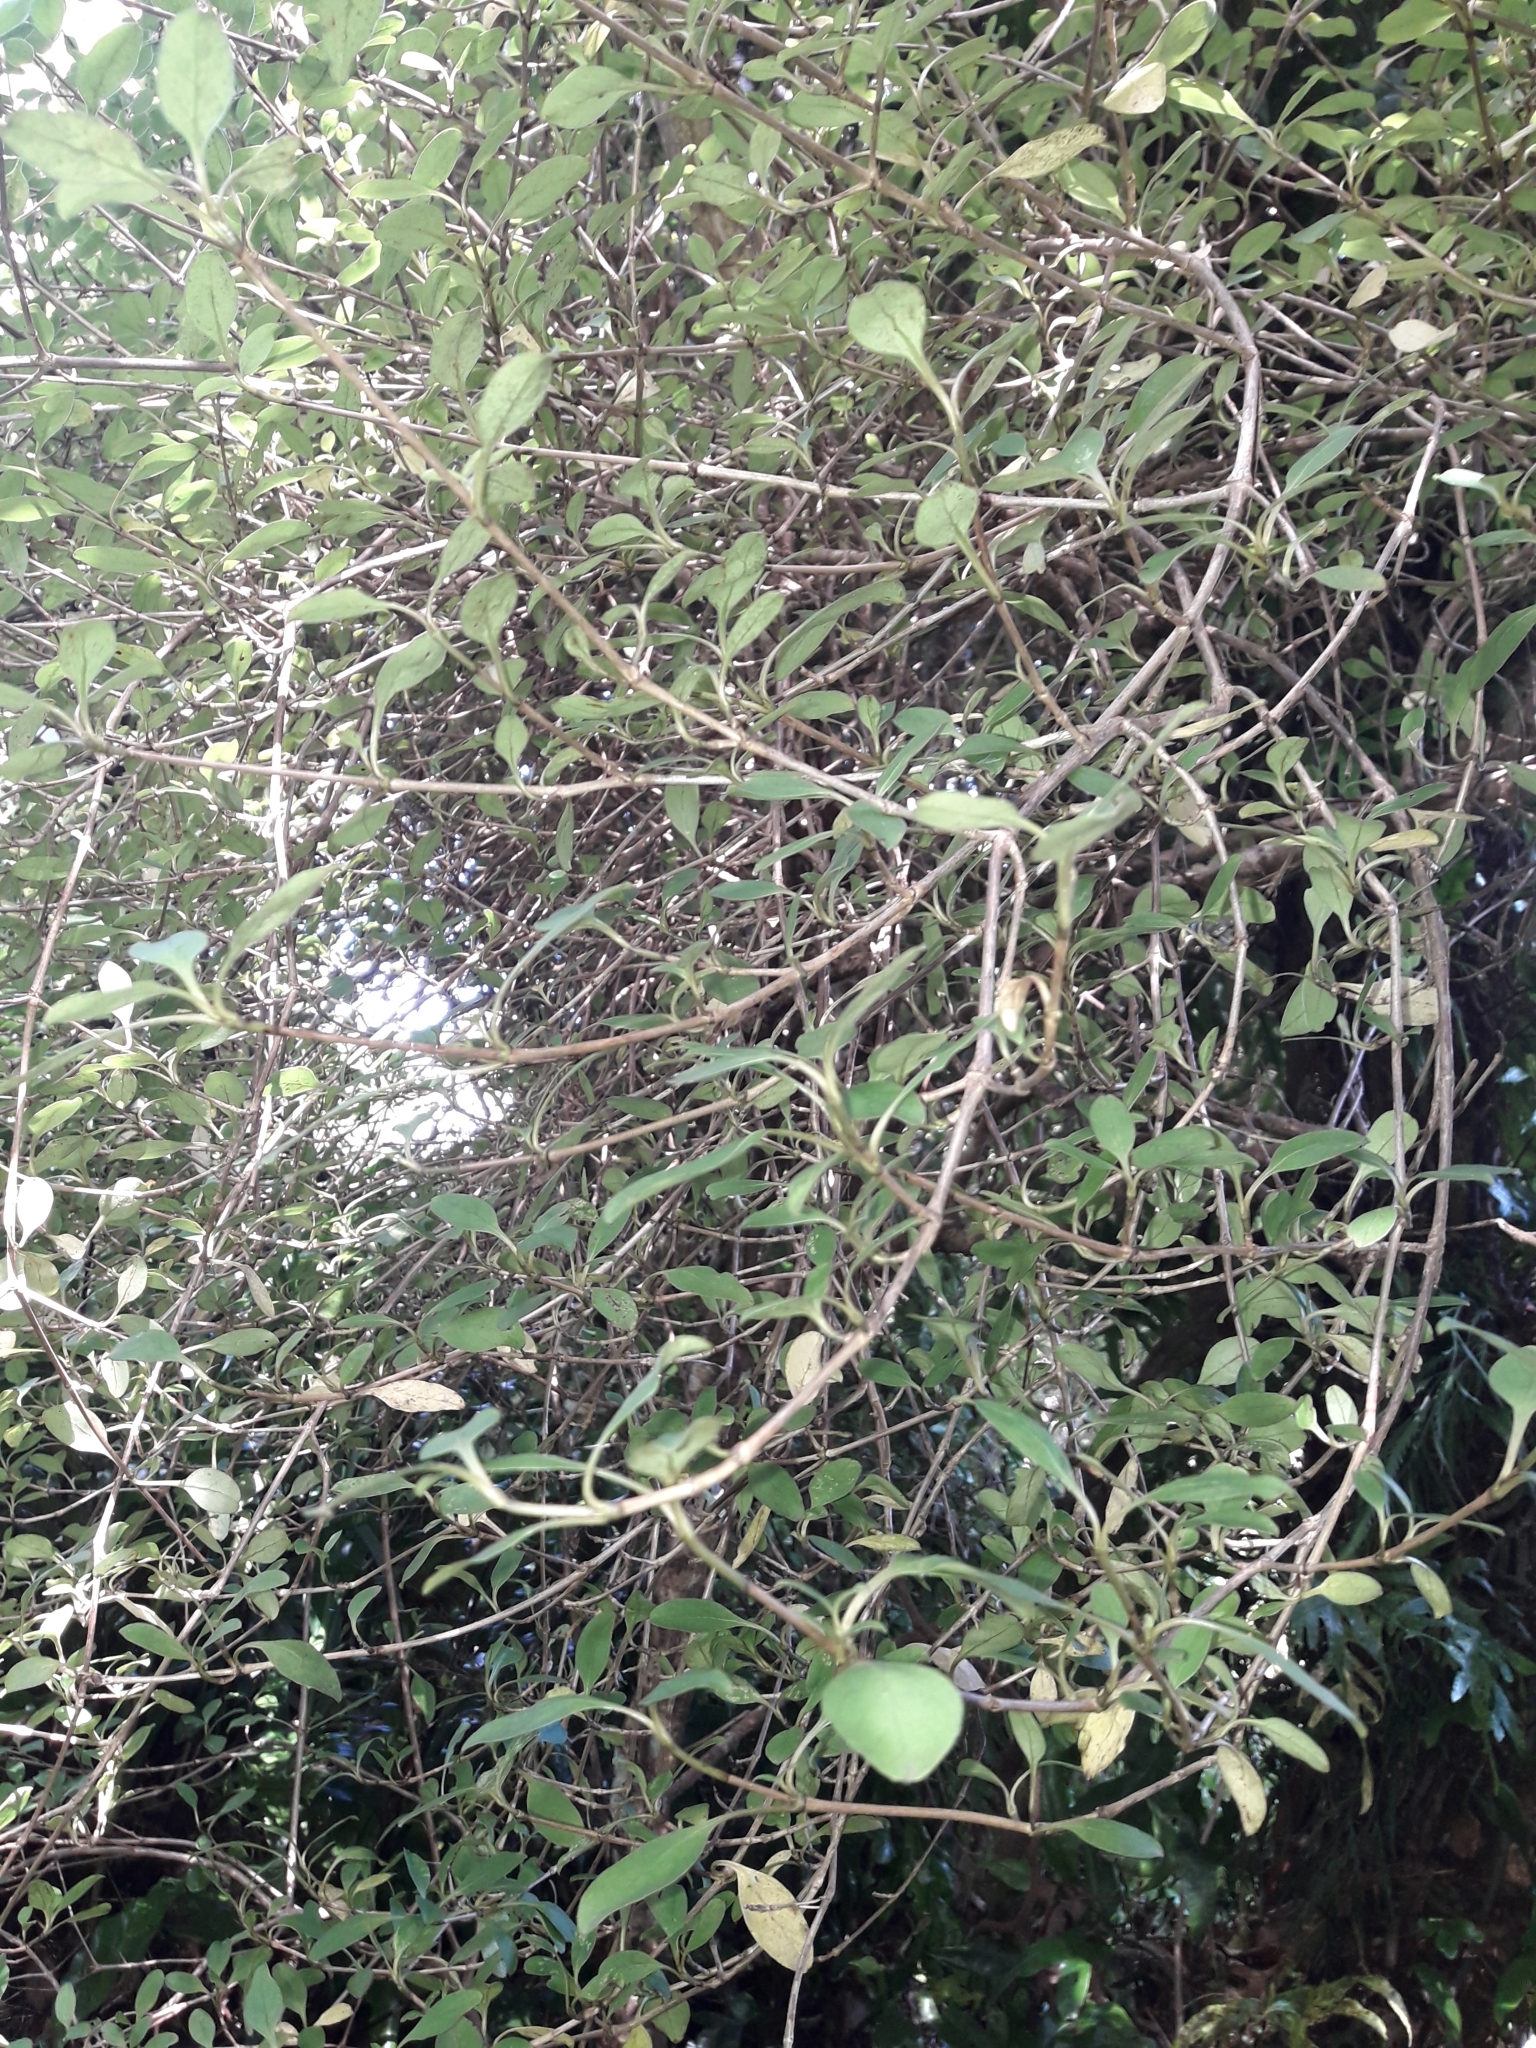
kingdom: Plantae
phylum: Tracheophyta
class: Magnoliopsida
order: Gentianales
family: Rubiaceae
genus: Coprosma
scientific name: Coprosma foetidissima
